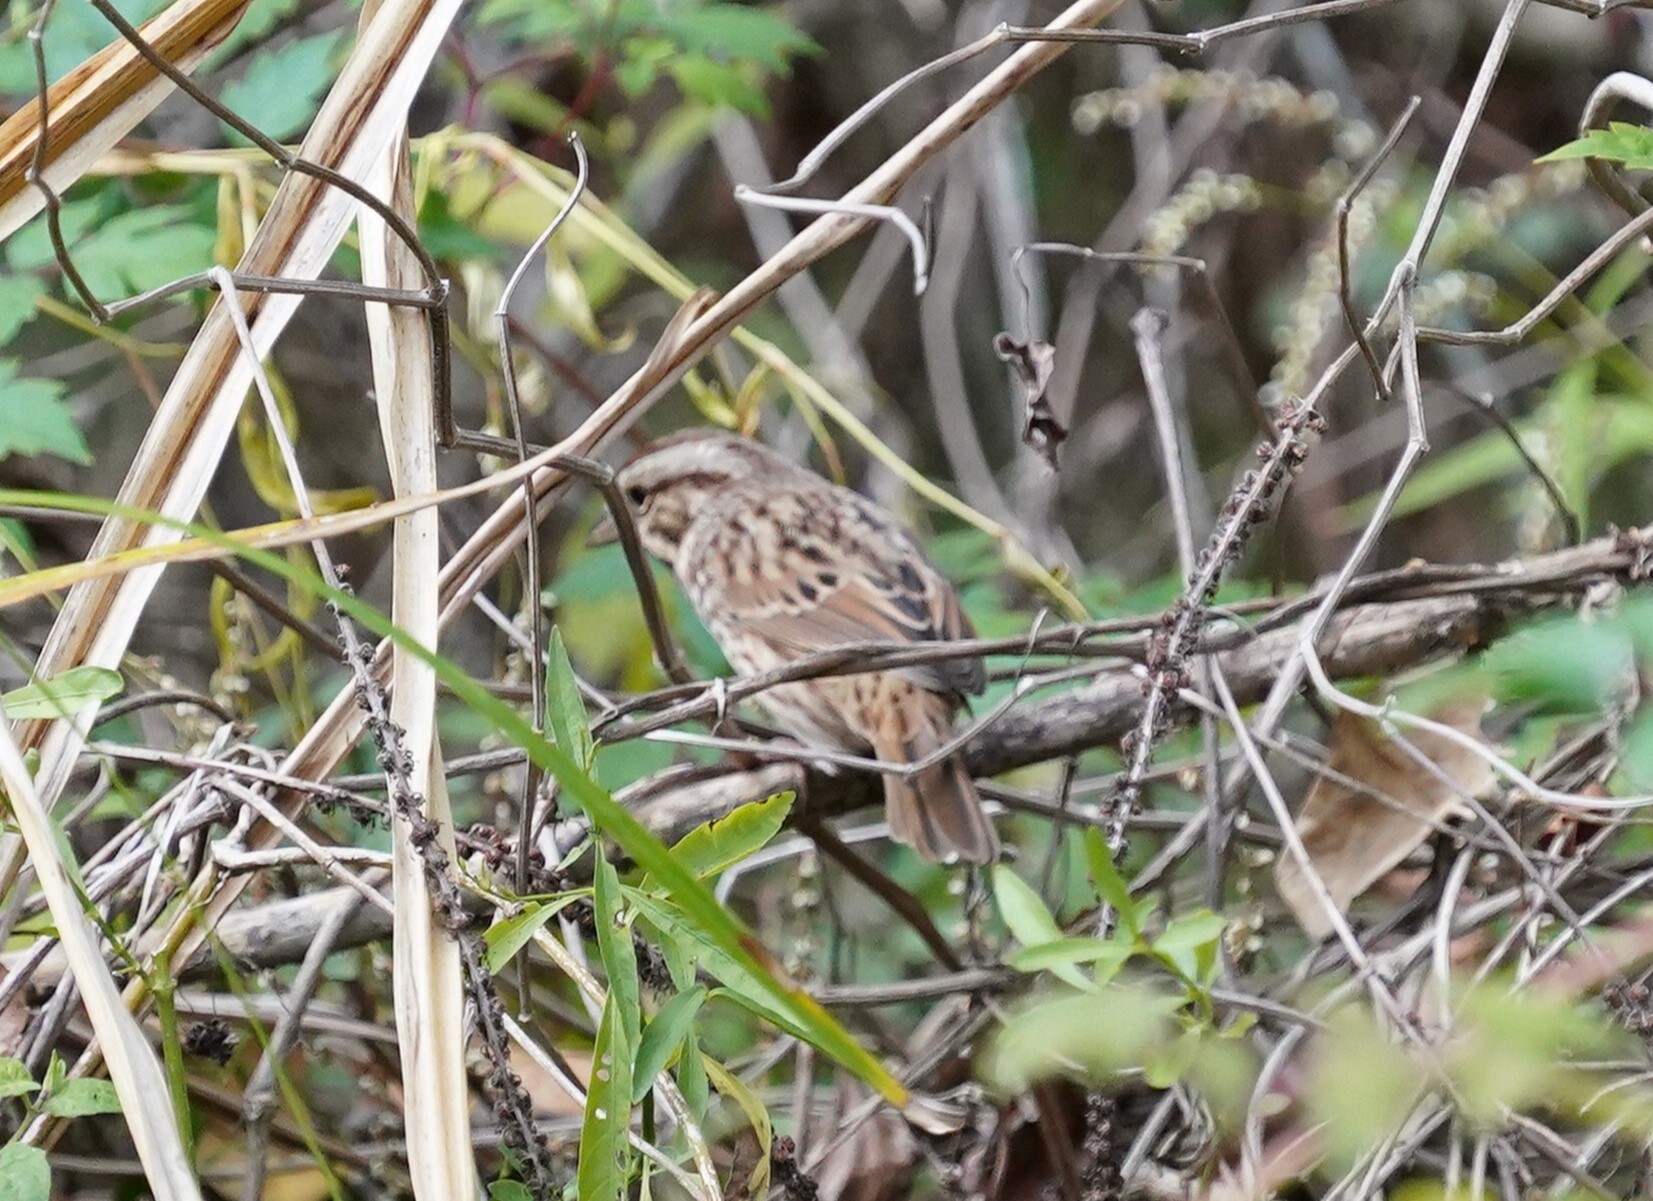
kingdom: Animalia
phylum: Chordata
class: Aves
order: Passeriformes
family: Passerellidae
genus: Melospiza
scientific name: Melospiza melodia
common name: Song sparrow
